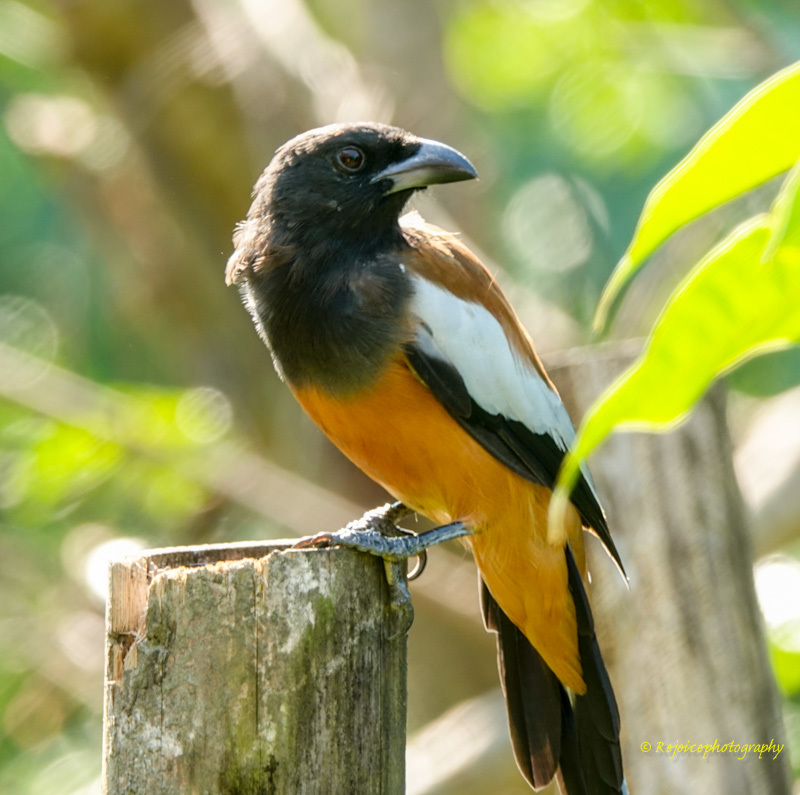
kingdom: Animalia
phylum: Chordata
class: Aves
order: Passeriformes
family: Corvidae
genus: Dendrocitta
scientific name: Dendrocitta vagabunda
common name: Rufous treepie
